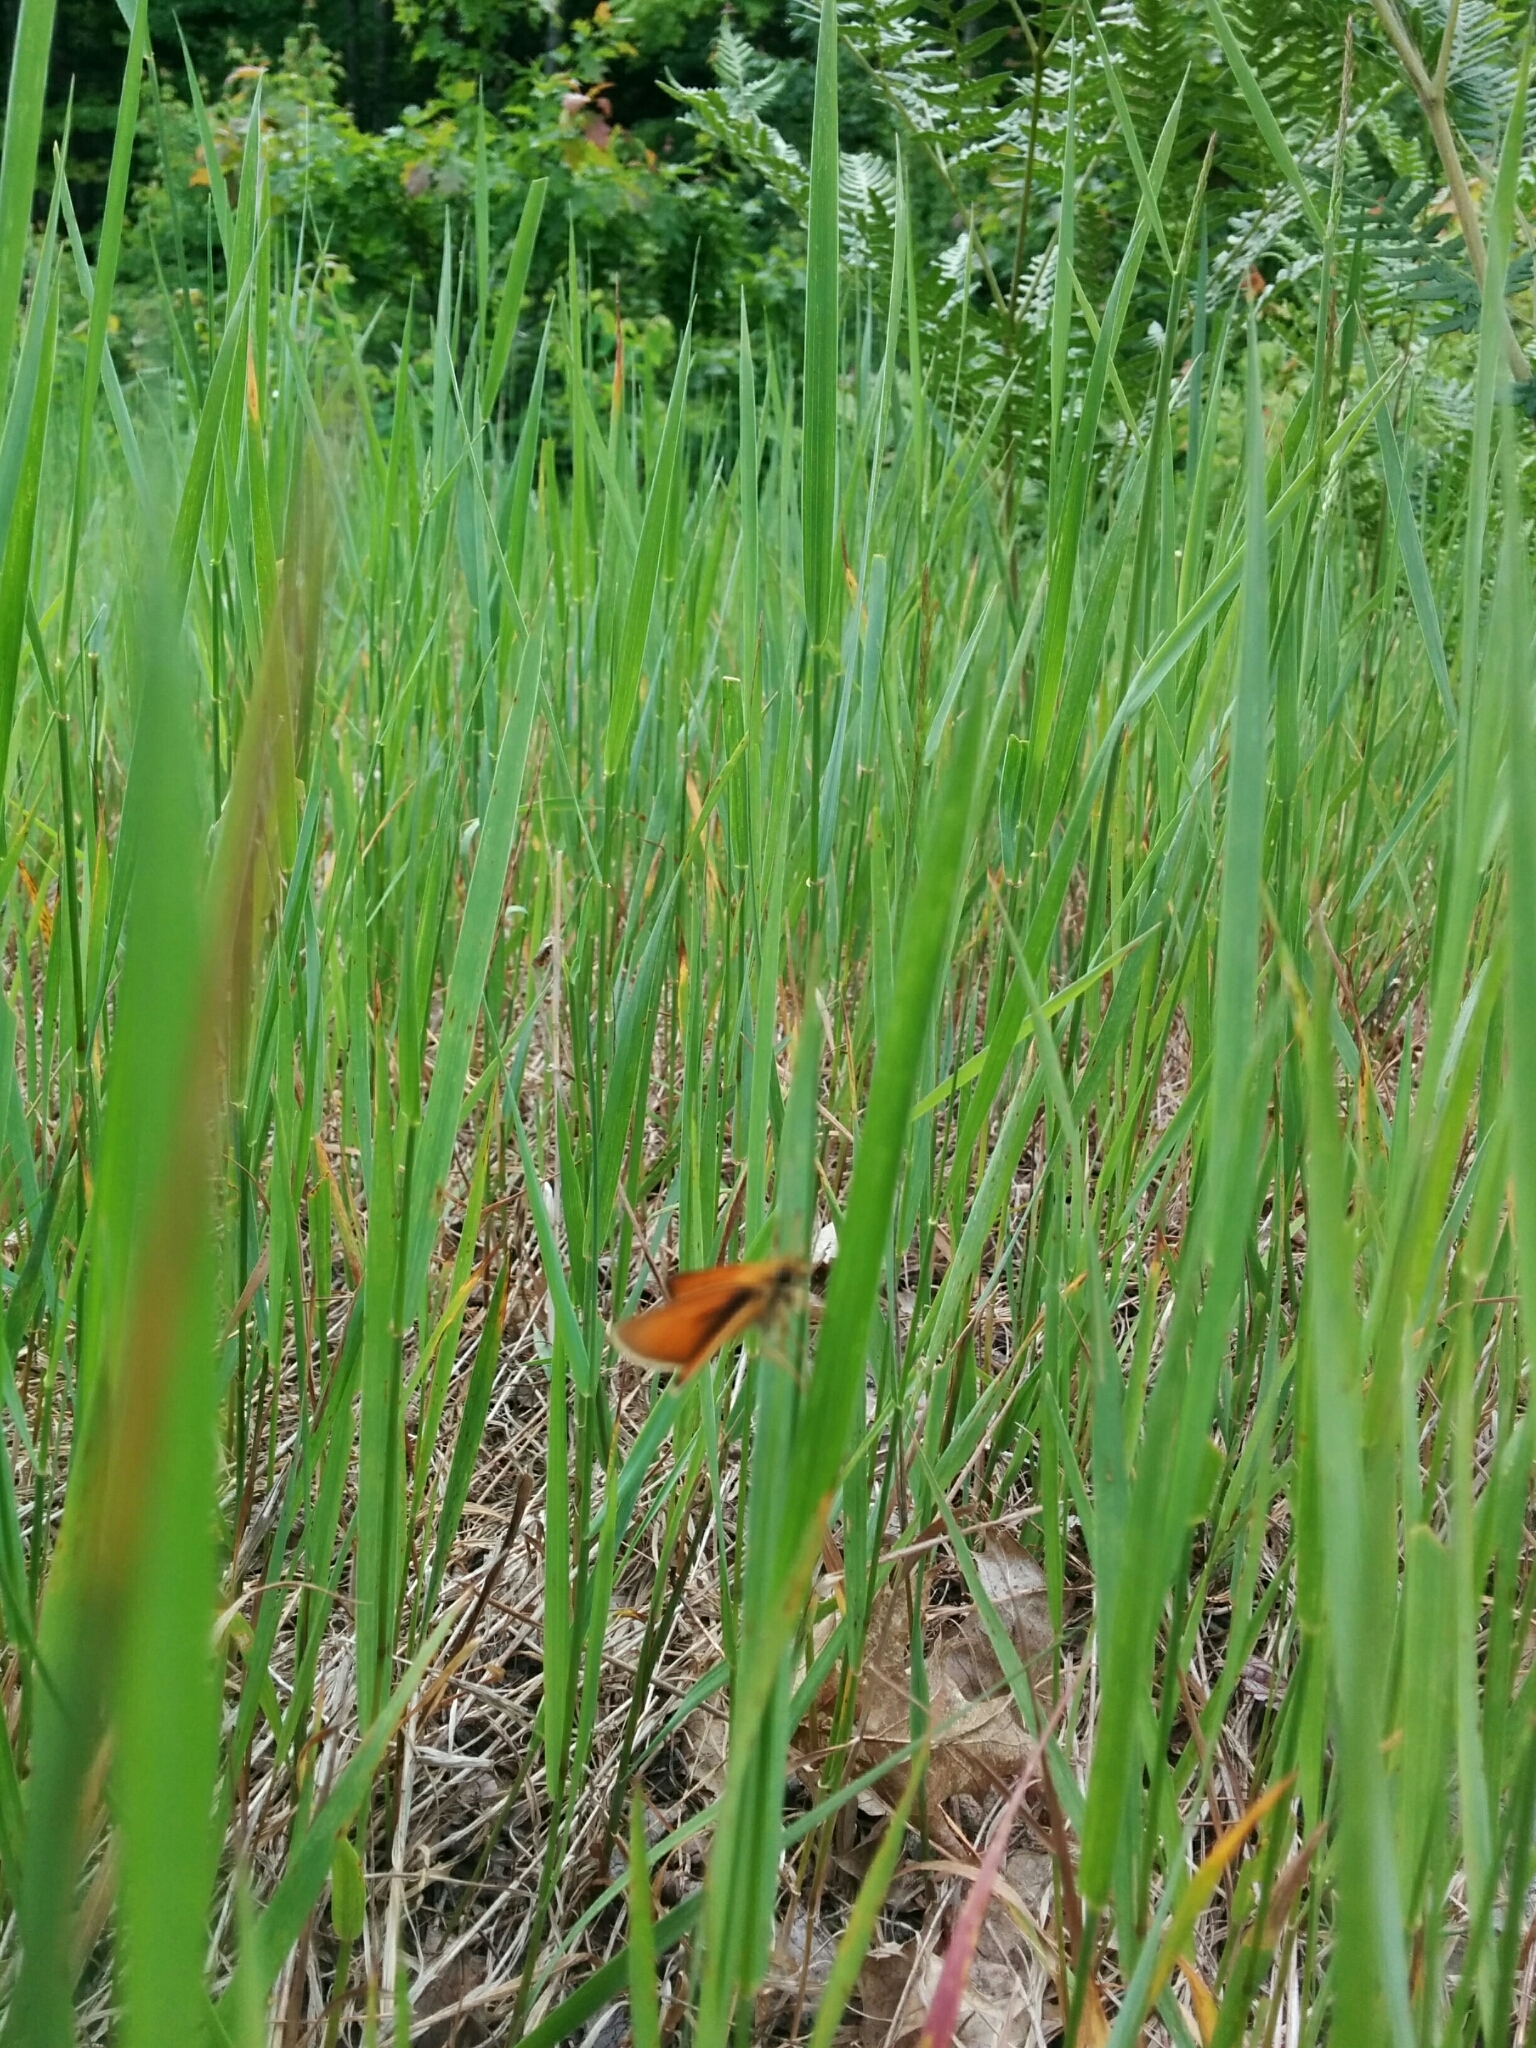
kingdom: Animalia
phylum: Arthropoda
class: Insecta
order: Lepidoptera
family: Hesperiidae
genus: Thymelicus
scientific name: Thymelicus lineola
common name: Essex skipper
